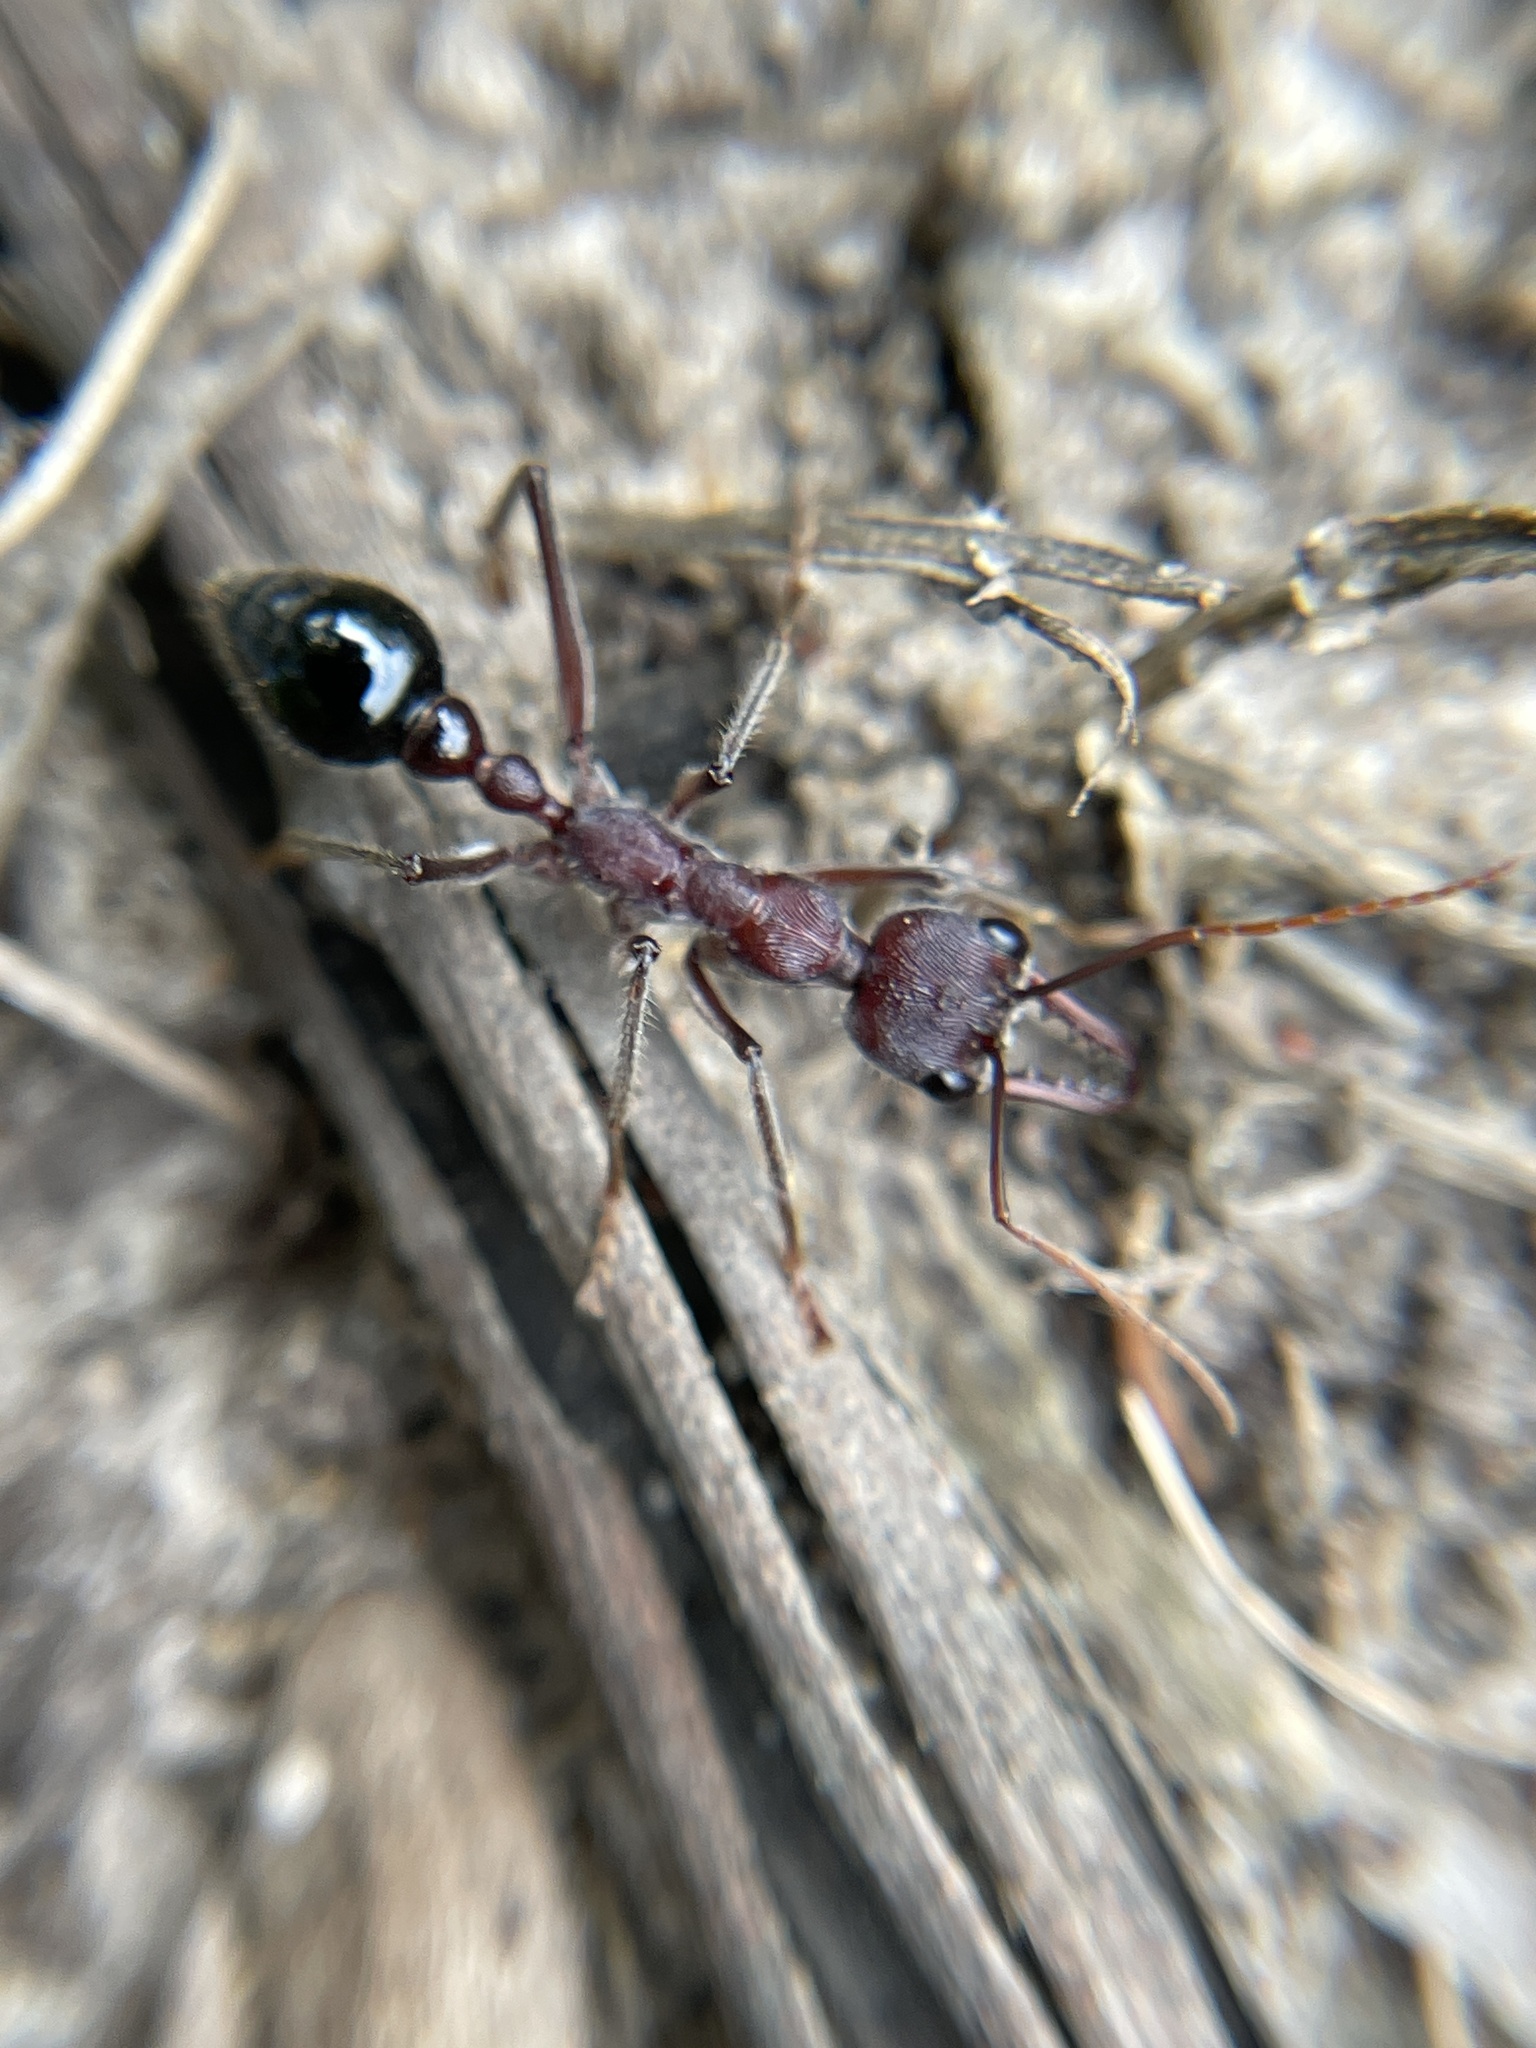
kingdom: Animalia
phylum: Arthropoda
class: Insecta
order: Hymenoptera
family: Formicidae
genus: Myrmecia
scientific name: Myrmecia simillima
